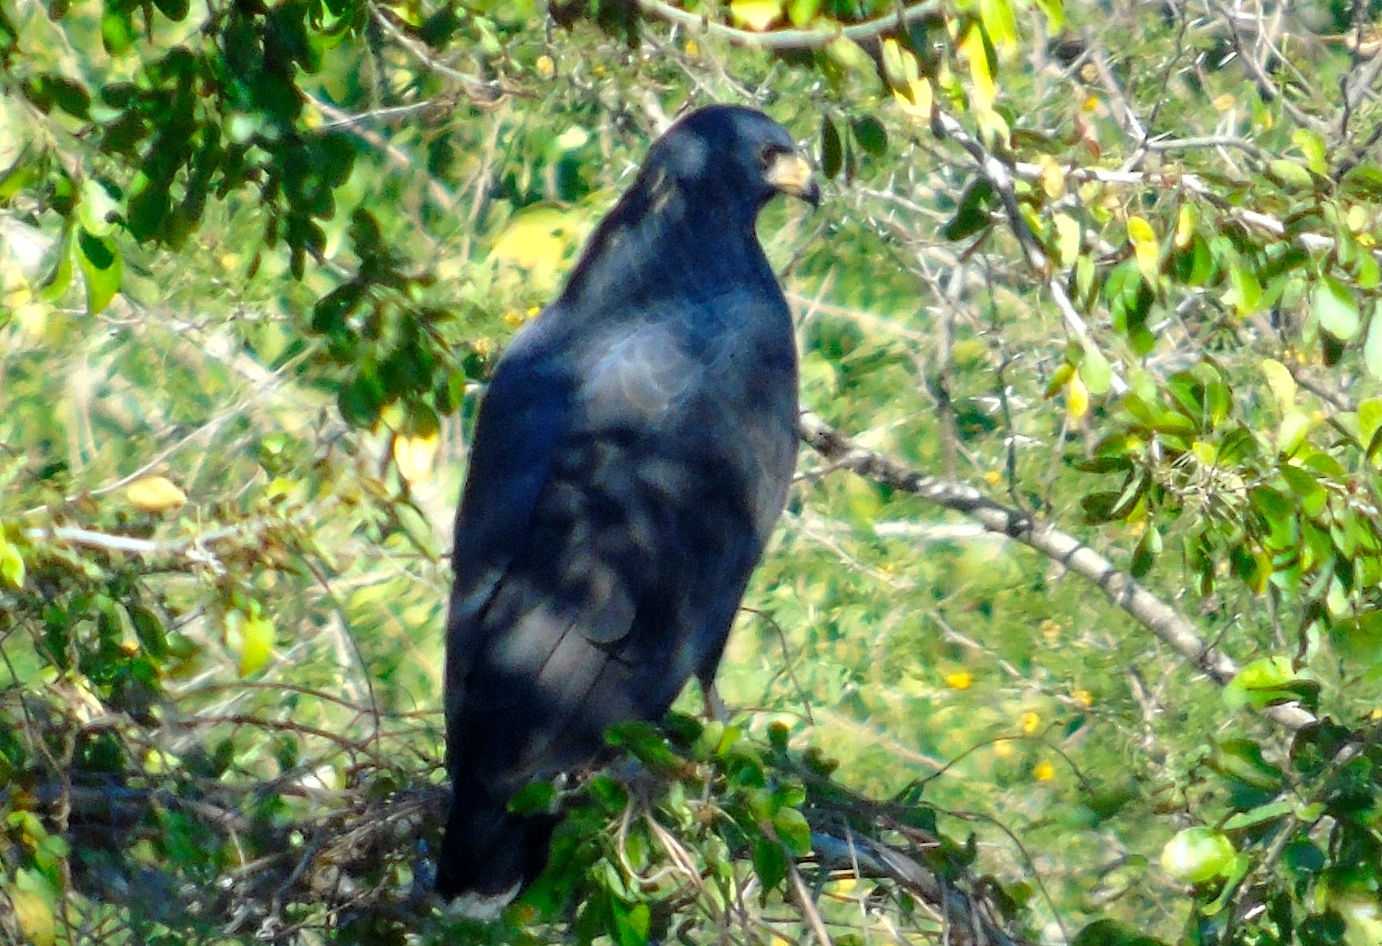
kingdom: Animalia
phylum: Chordata
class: Aves
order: Accipitriformes
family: Accipitridae
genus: Buteogallus
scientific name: Buteogallus anthracinus
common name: Common black hawk
